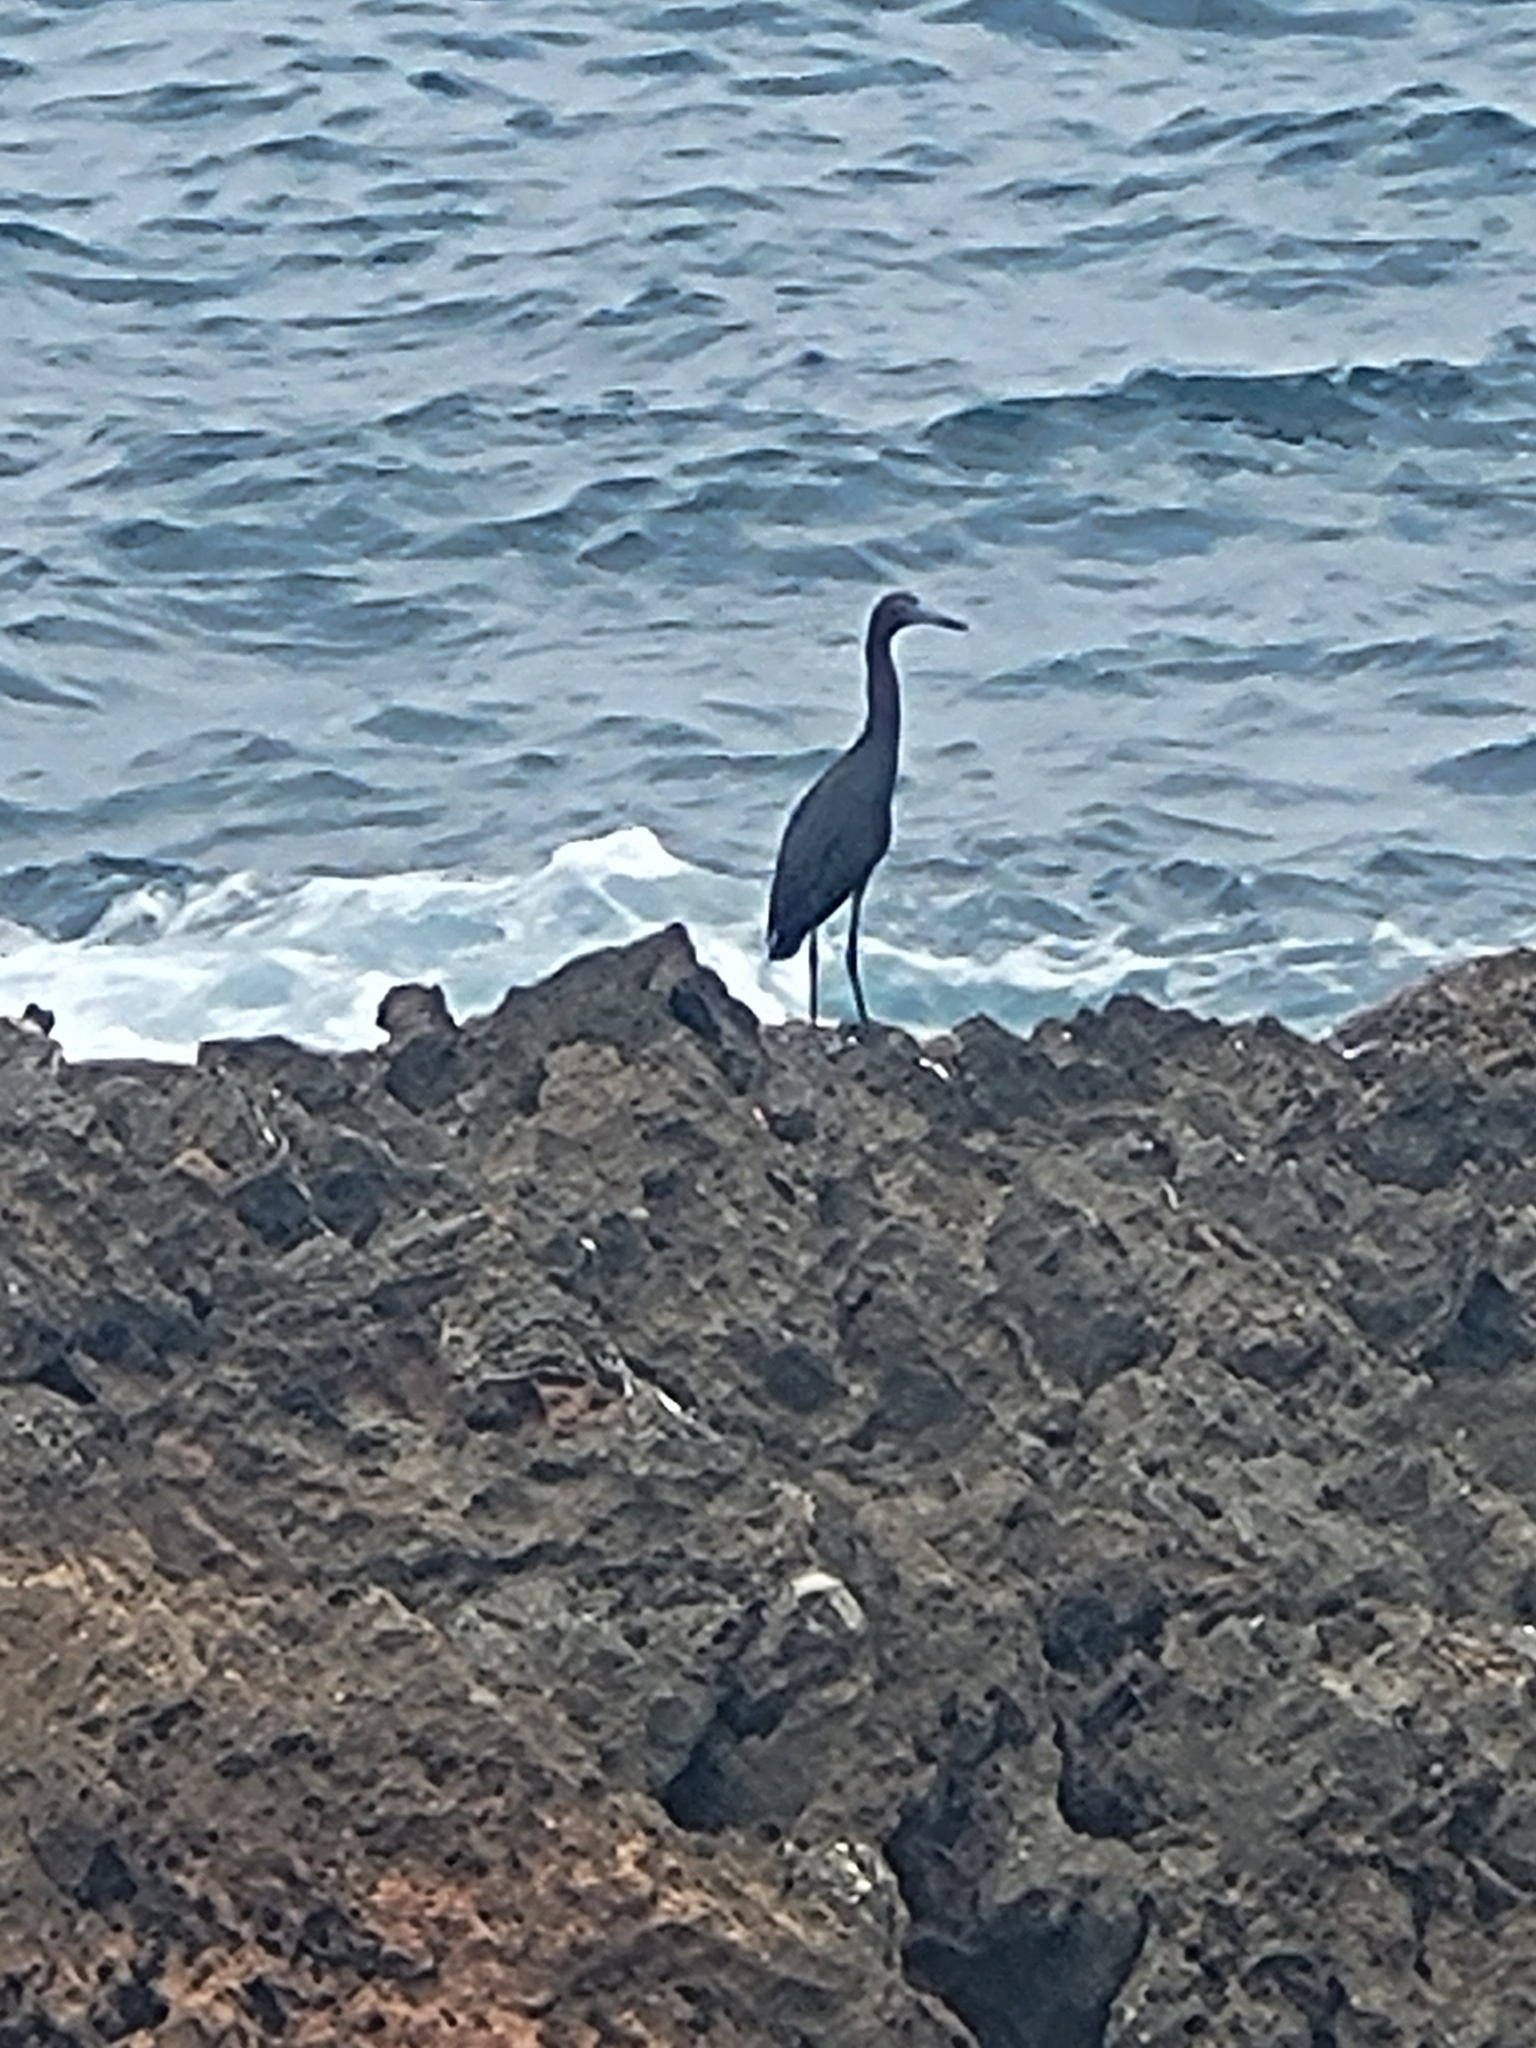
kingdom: Animalia
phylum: Chordata
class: Aves
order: Pelecaniformes
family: Ardeidae
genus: Egretta
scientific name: Egretta caerulea
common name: Little blue heron
